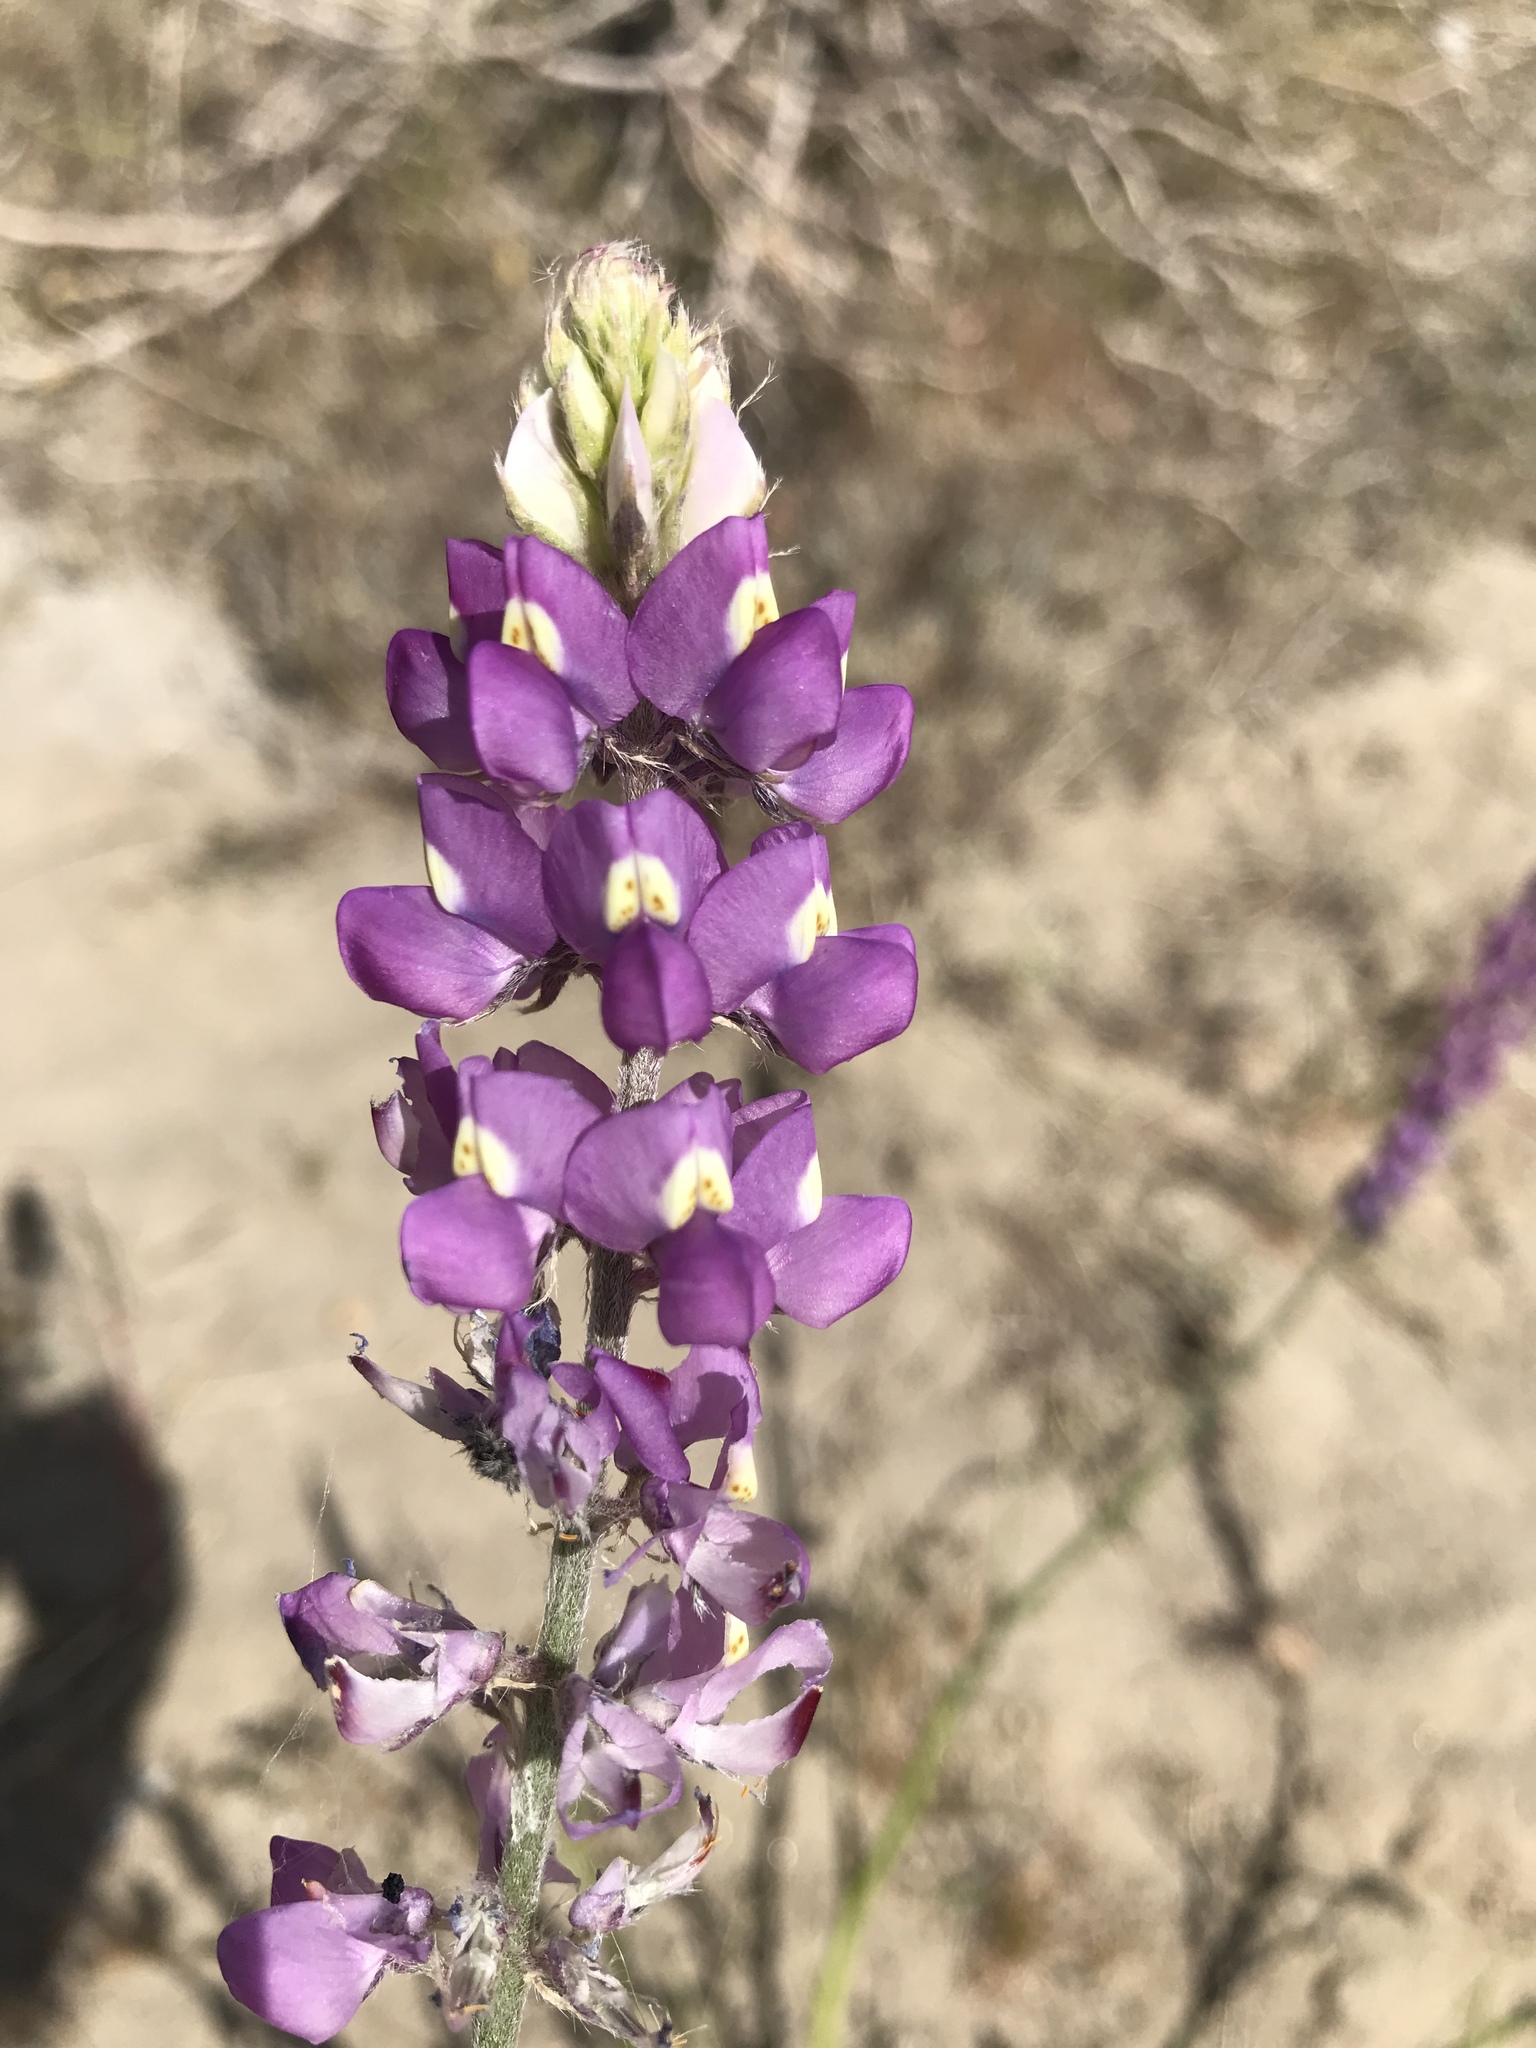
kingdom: Plantae
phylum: Tracheophyta
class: Magnoliopsida
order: Fabales
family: Fabaceae
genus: Lupinus
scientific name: Lupinus arizonicus
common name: Arizona lupine
